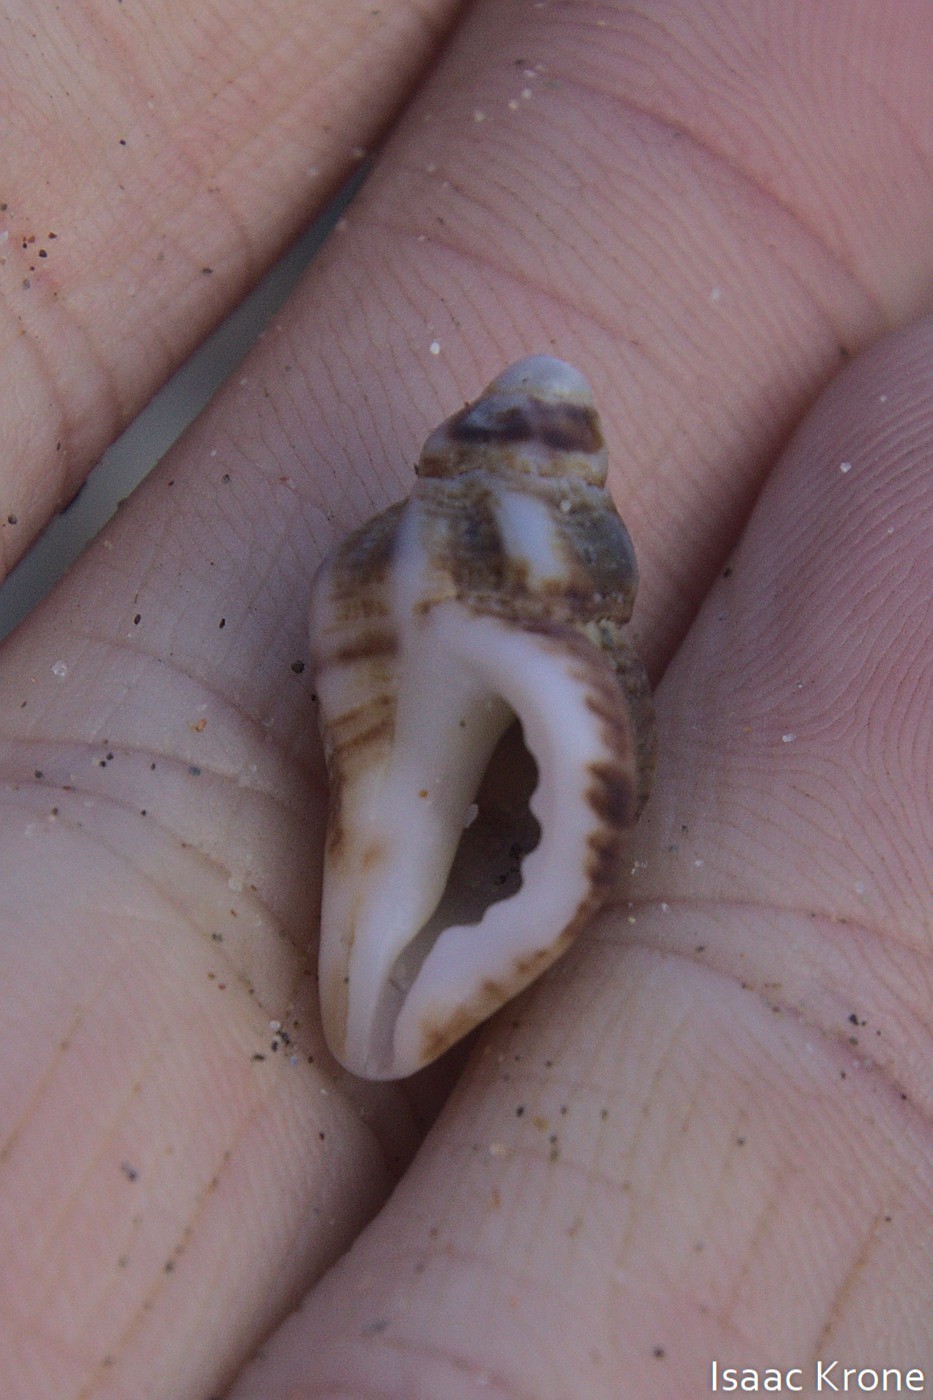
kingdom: Animalia
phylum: Mollusca
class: Gastropoda
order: Neogastropoda
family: Muricidae
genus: Paciocinebrina
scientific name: Paciocinebrina foveolata
